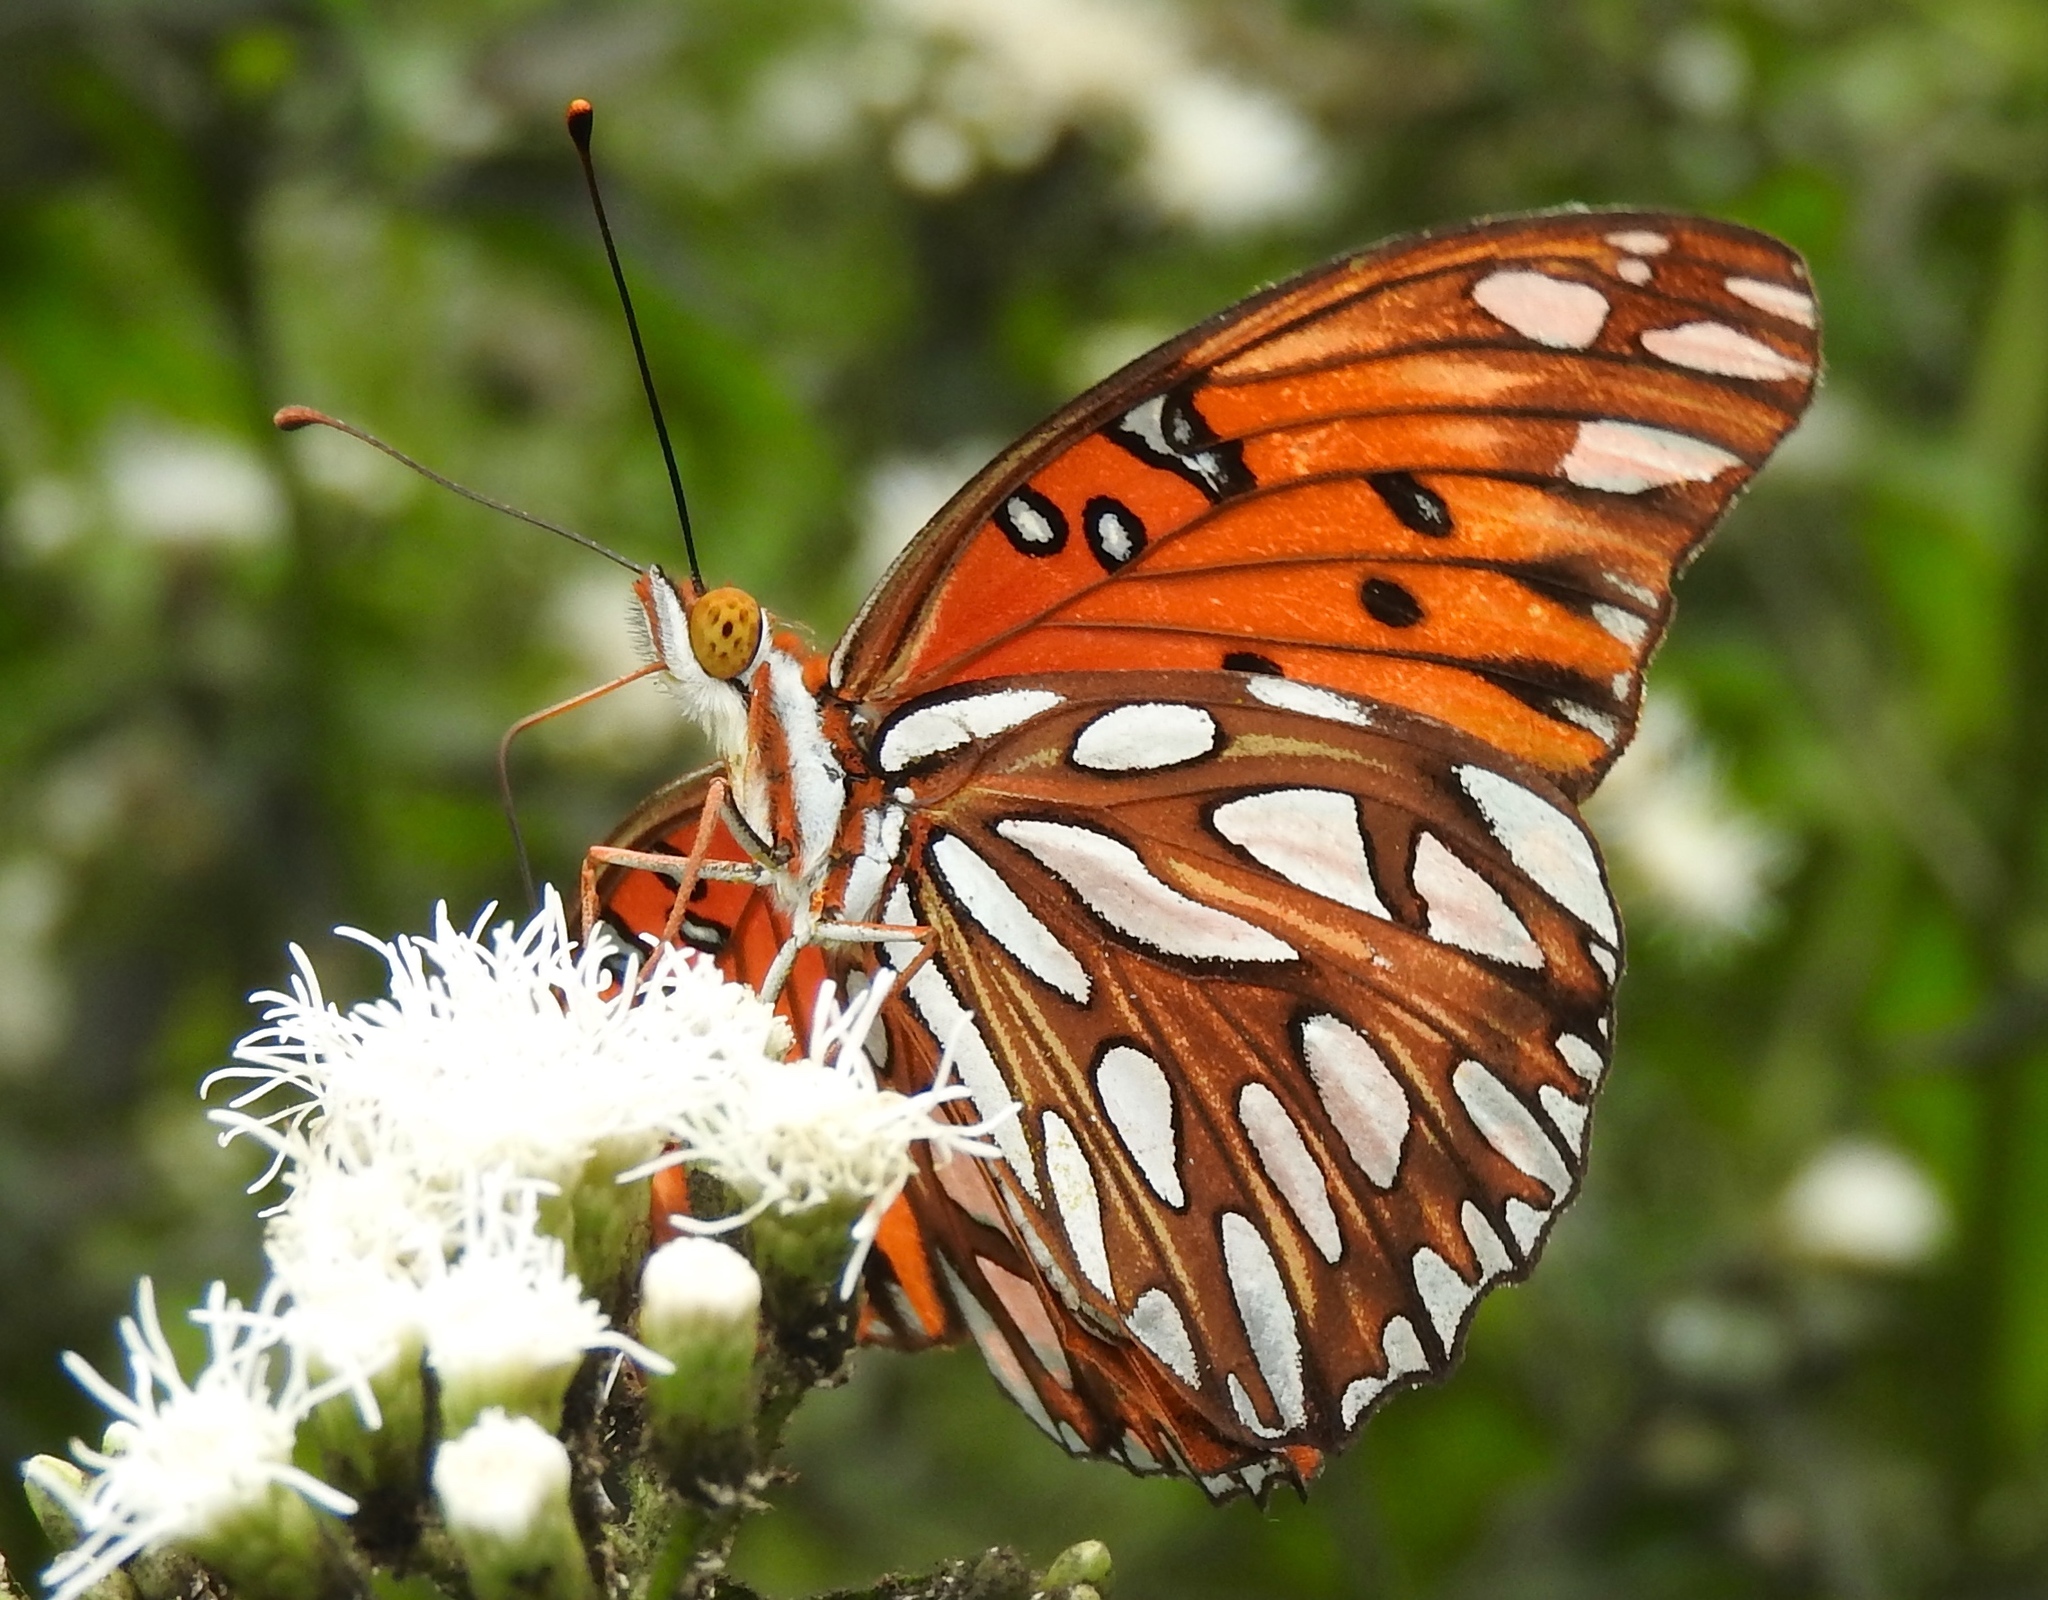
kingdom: Animalia
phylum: Arthropoda
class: Insecta
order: Lepidoptera
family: Nymphalidae
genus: Dione
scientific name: Dione vanillae
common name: Gulf fritillary
